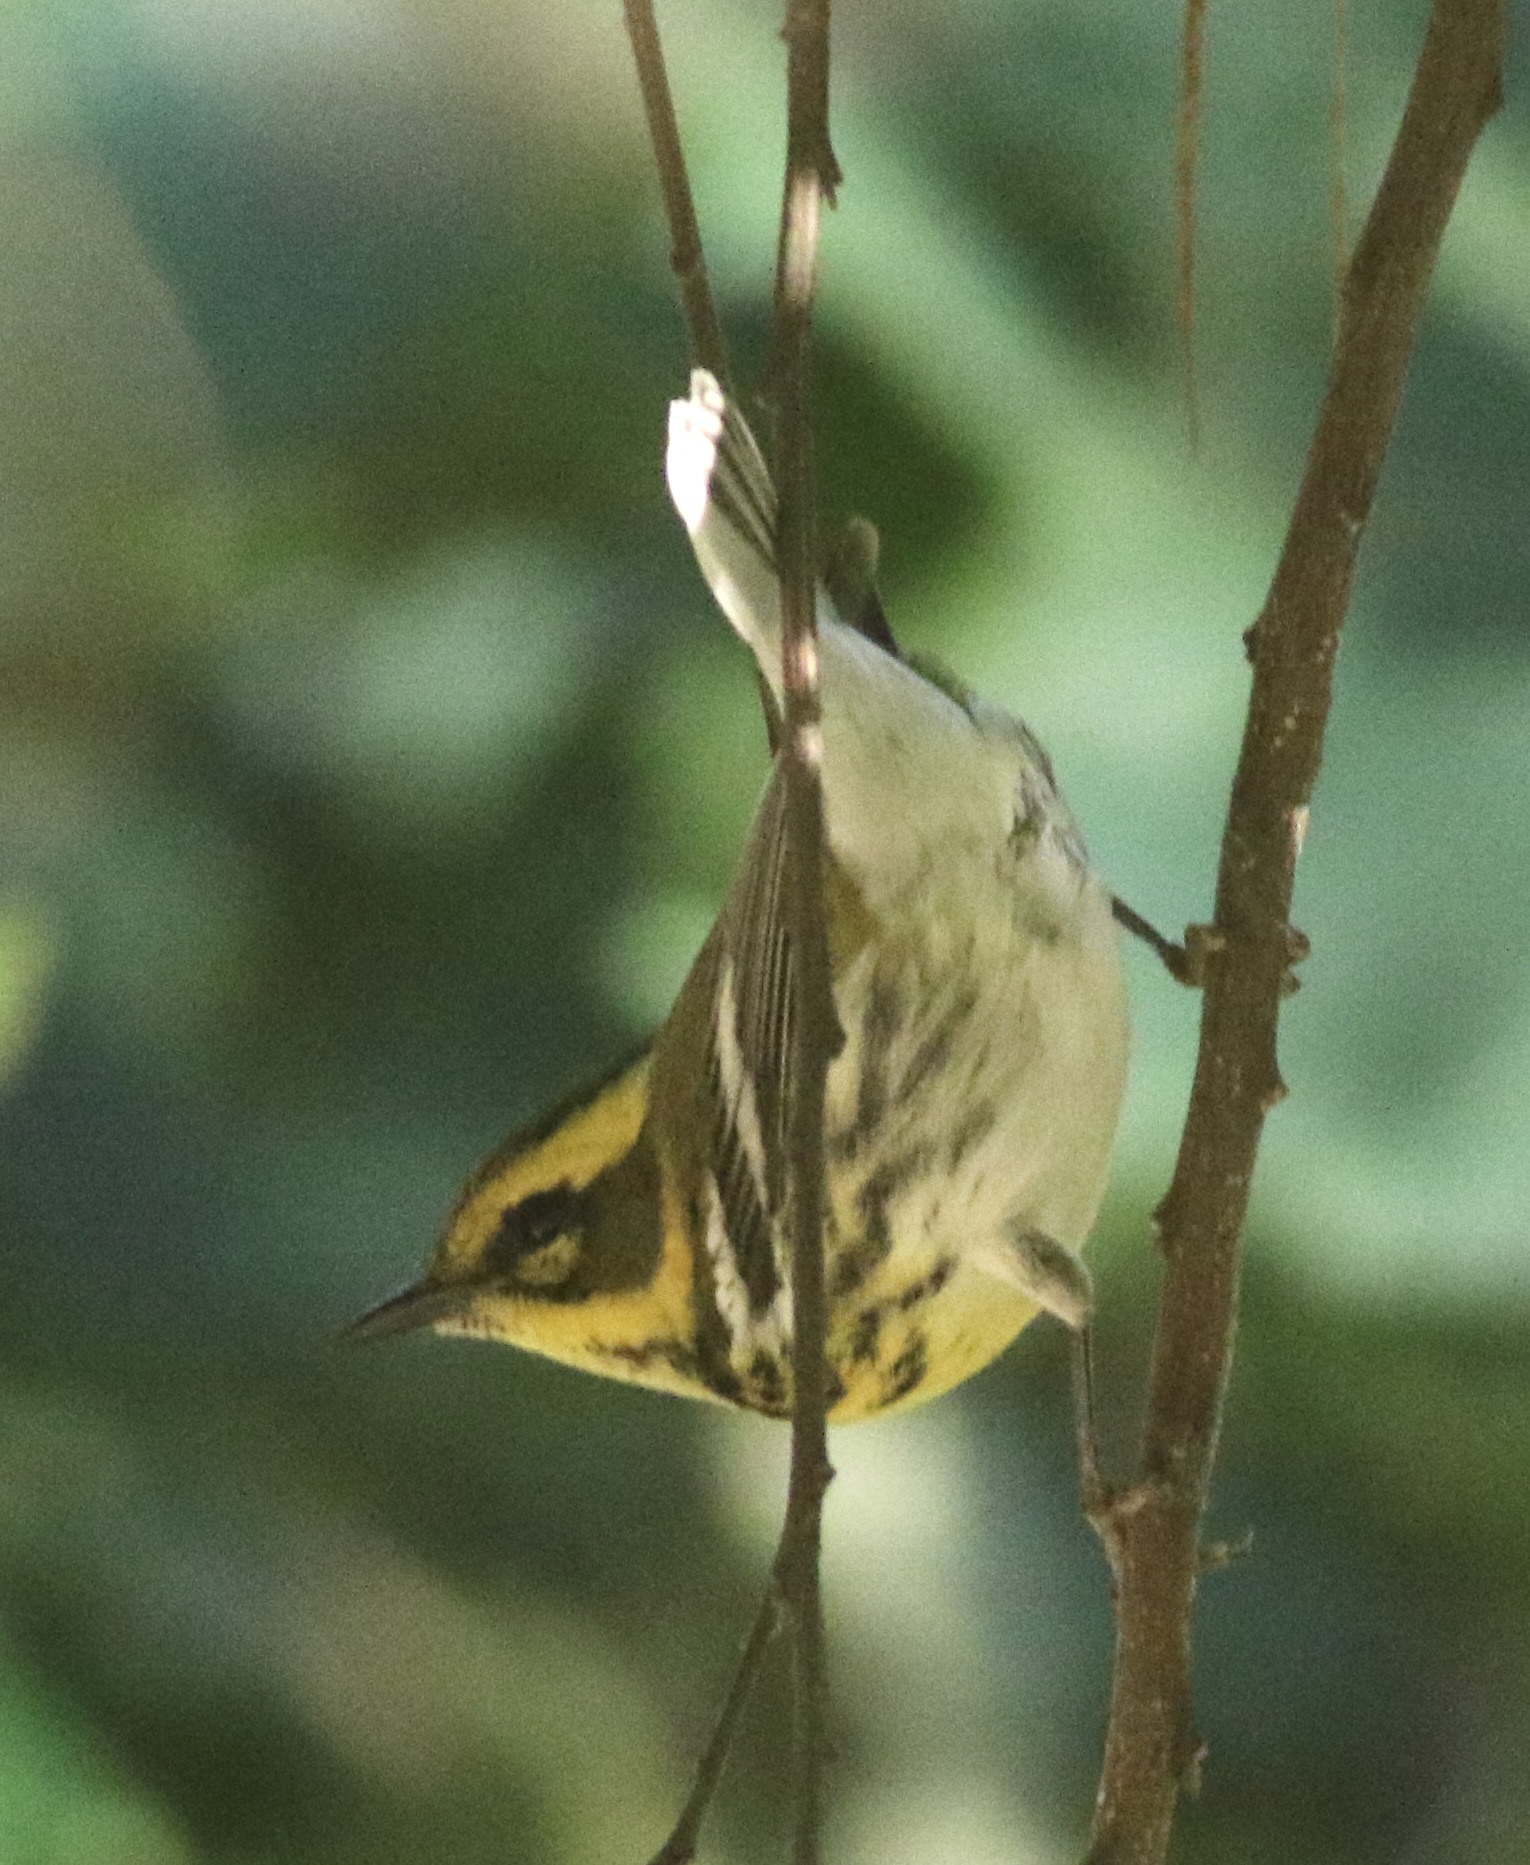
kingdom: Animalia
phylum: Chordata
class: Aves
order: Passeriformes
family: Parulidae
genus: Setophaga
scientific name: Setophaga townsendi
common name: Townsend's warbler
